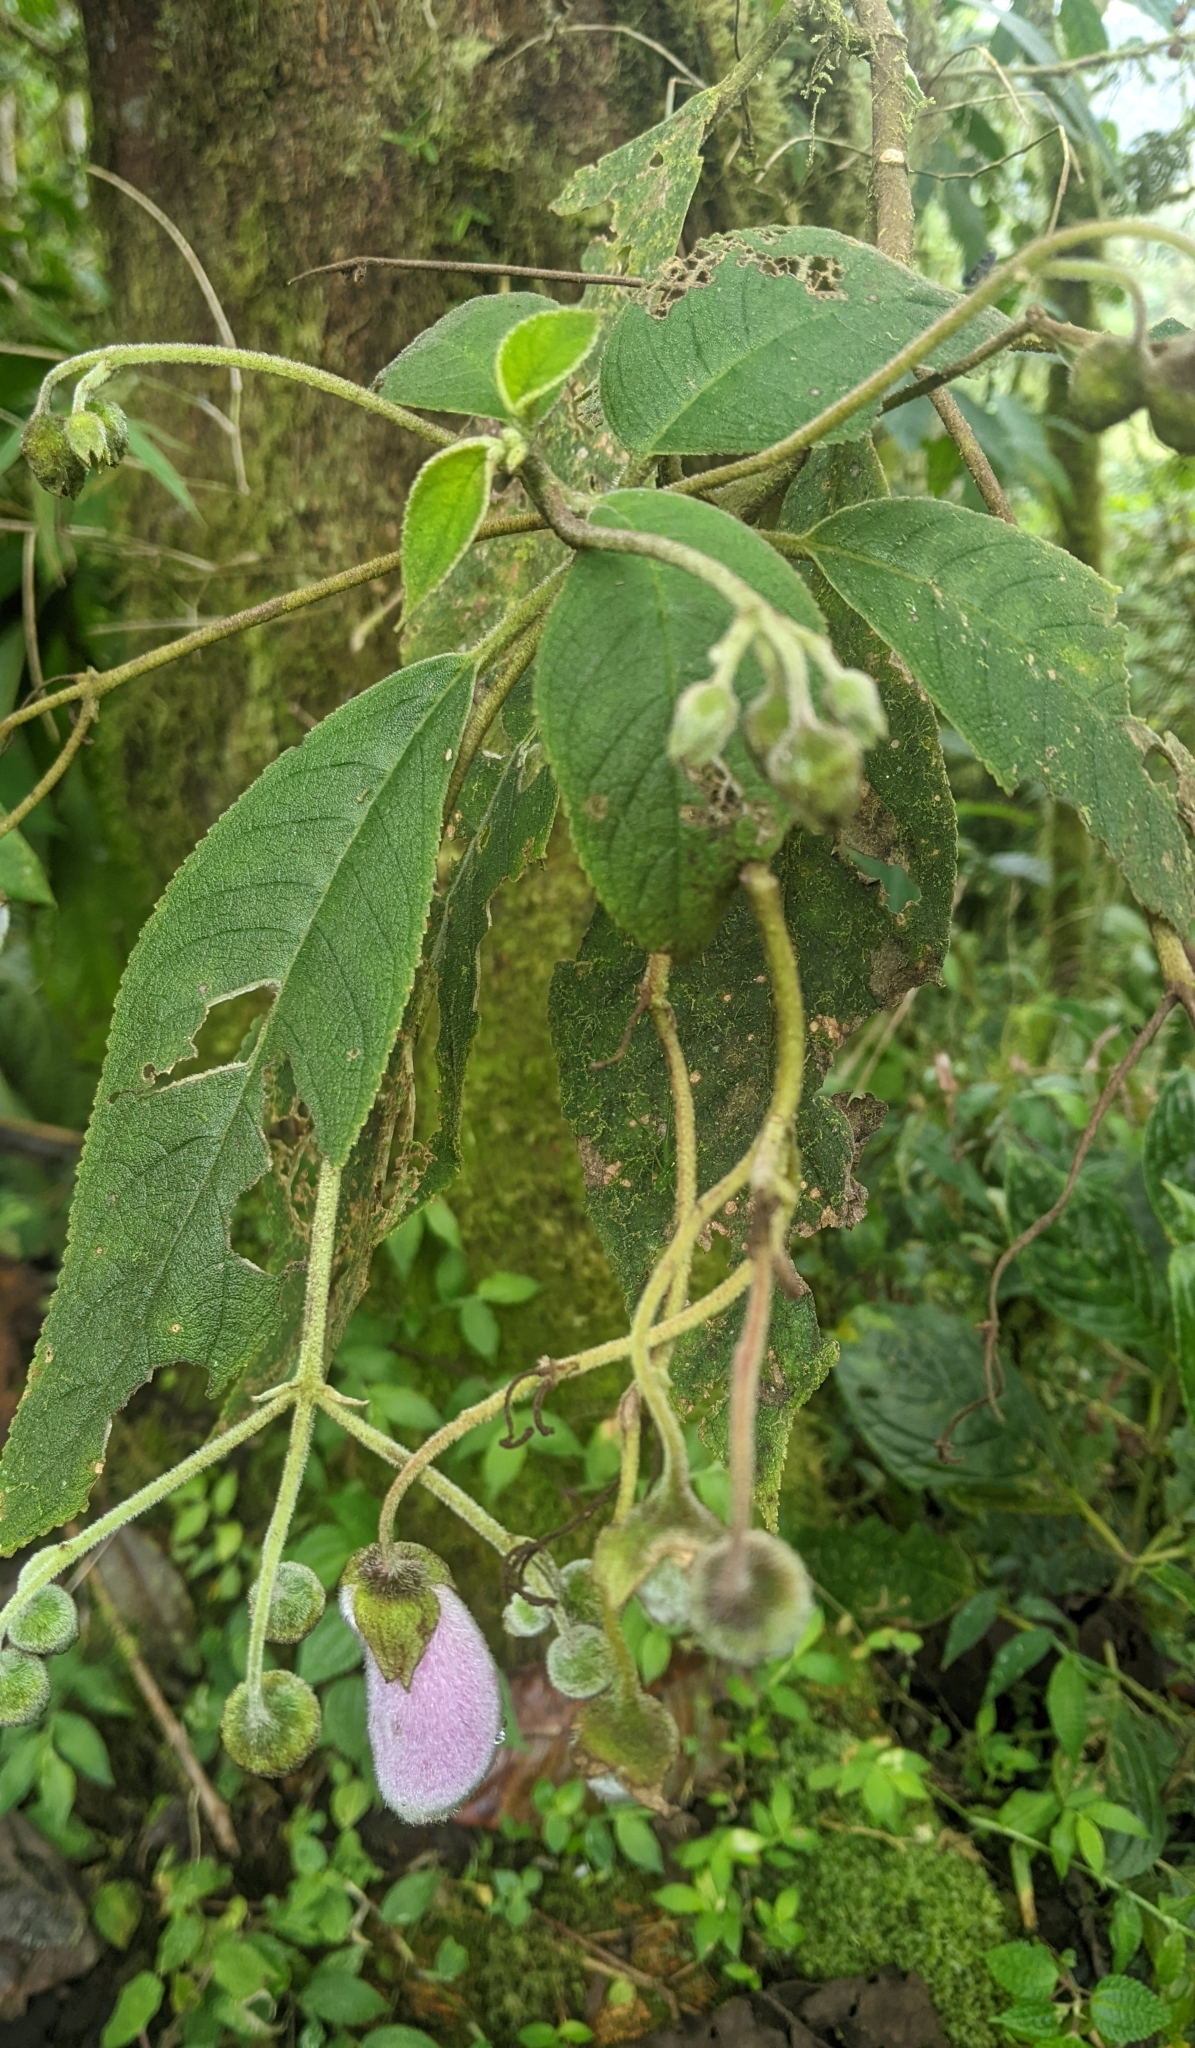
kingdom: Plantae
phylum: Tracheophyta
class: Magnoliopsida
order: Lamiales
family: Gesneriaceae
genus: Kohleria
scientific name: Kohleria affinis
